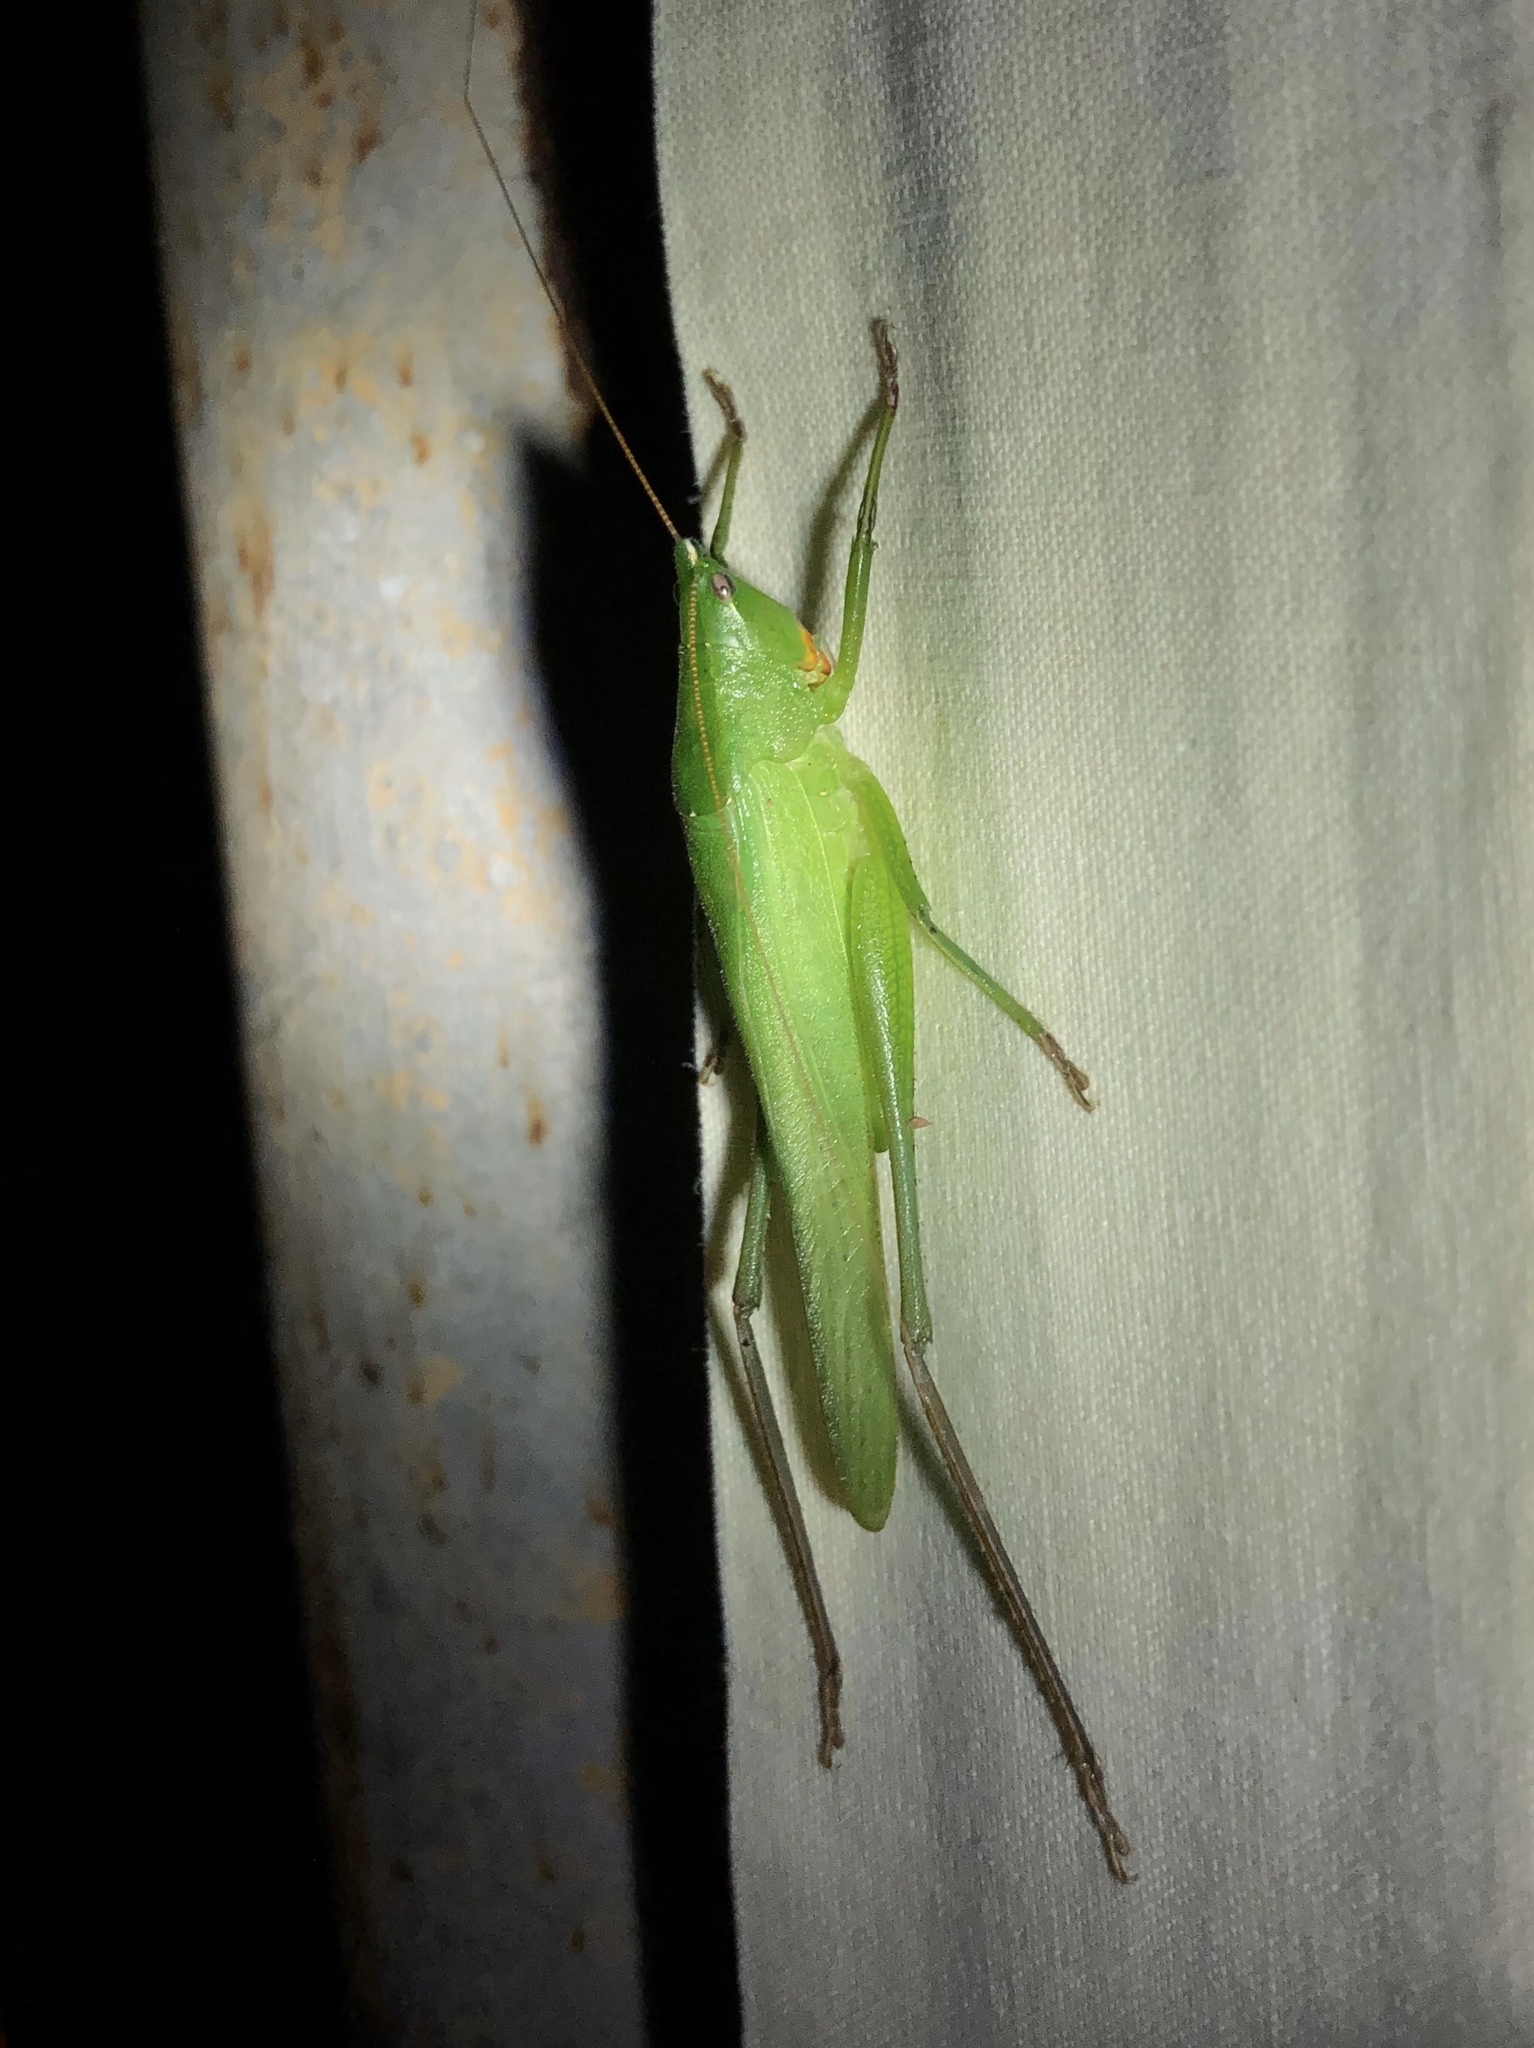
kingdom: Animalia
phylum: Arthropoda
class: Insecta
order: Orthoptera
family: Tettigoniidae
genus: Neoconocephalus
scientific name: Neoconocephalus affinis
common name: Rattler conehead
